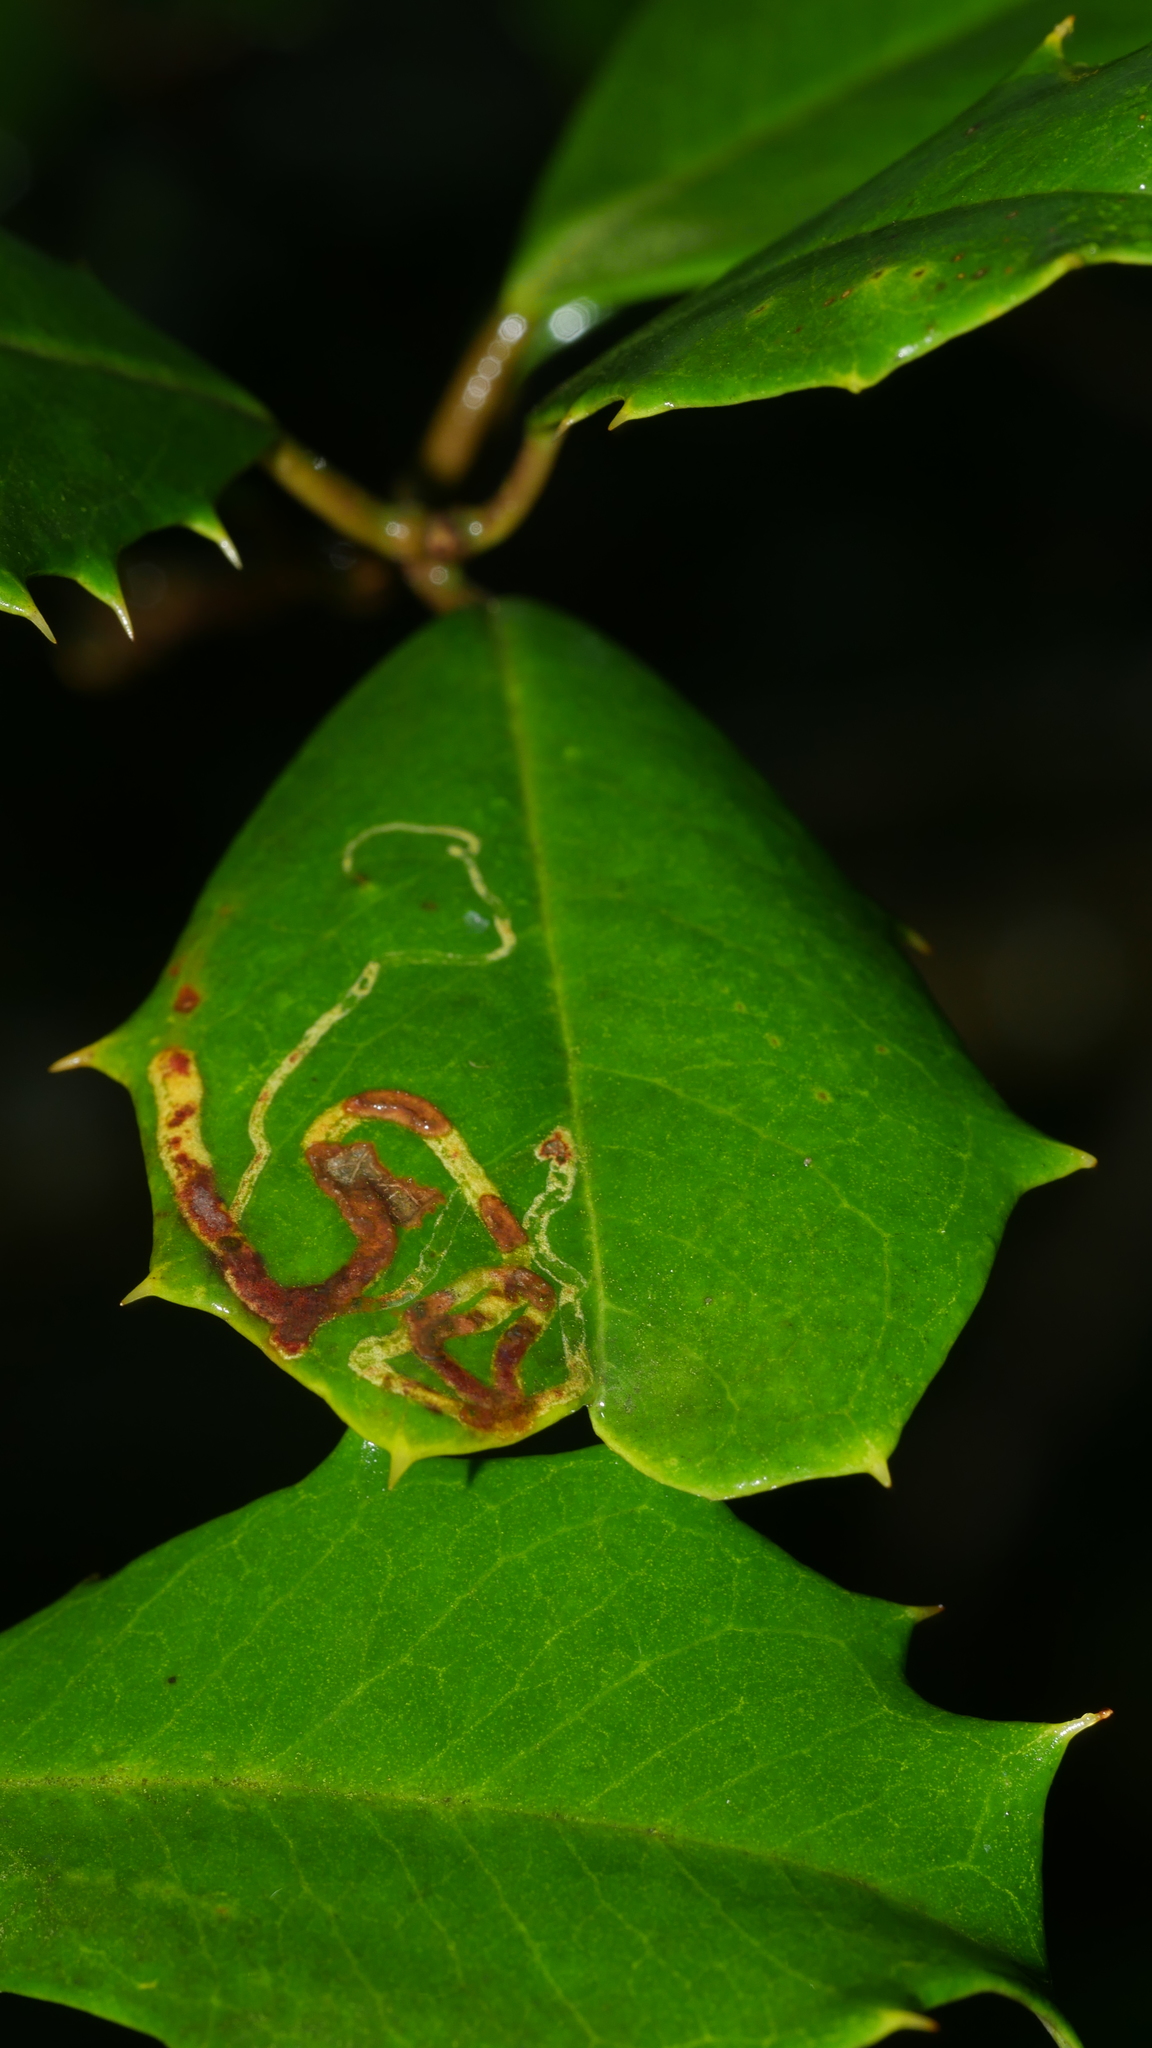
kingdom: Animalia
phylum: Arthropoda
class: Insecta
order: Diptera
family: Agromyzidae
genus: Phytomyza
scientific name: Phytomyza opacae
